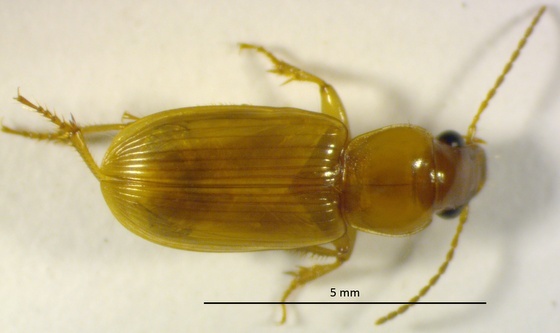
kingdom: Animalia
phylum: Arthropoda
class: Insecta
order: Coleoptera
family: Carabidae
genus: Stenolophus
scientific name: Stenolophus ochropezus
